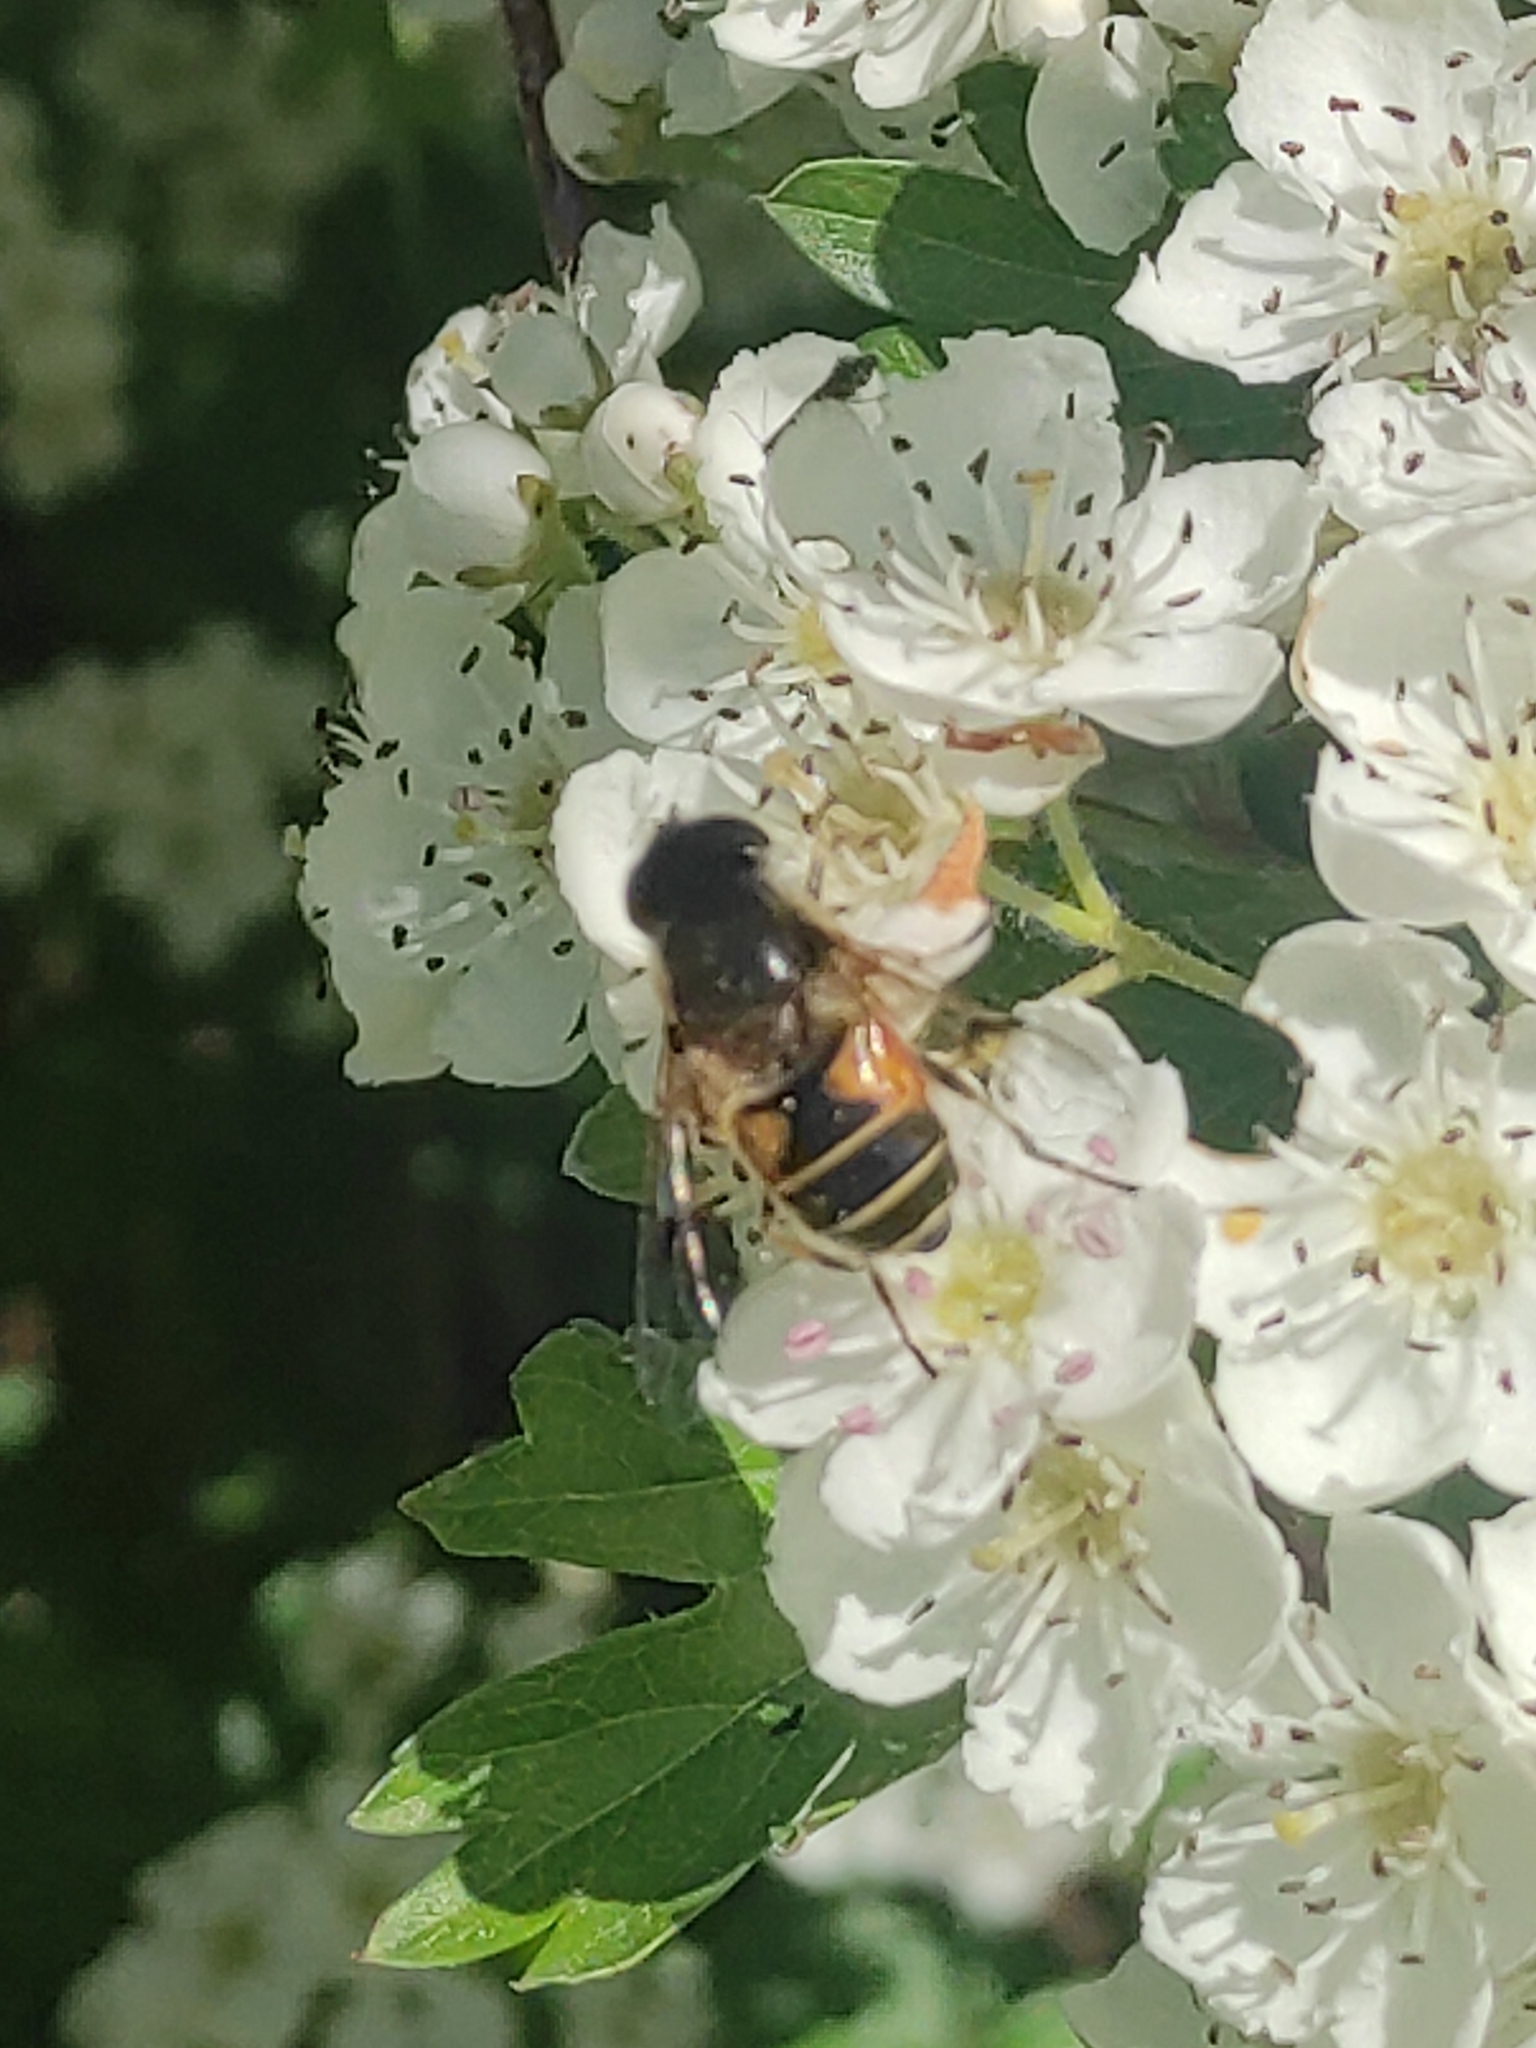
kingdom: Animalia
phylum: Arthropoda
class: Insecta
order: Diptera
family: Syrphidae
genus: Cheilosia
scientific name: Cheilosia morio
